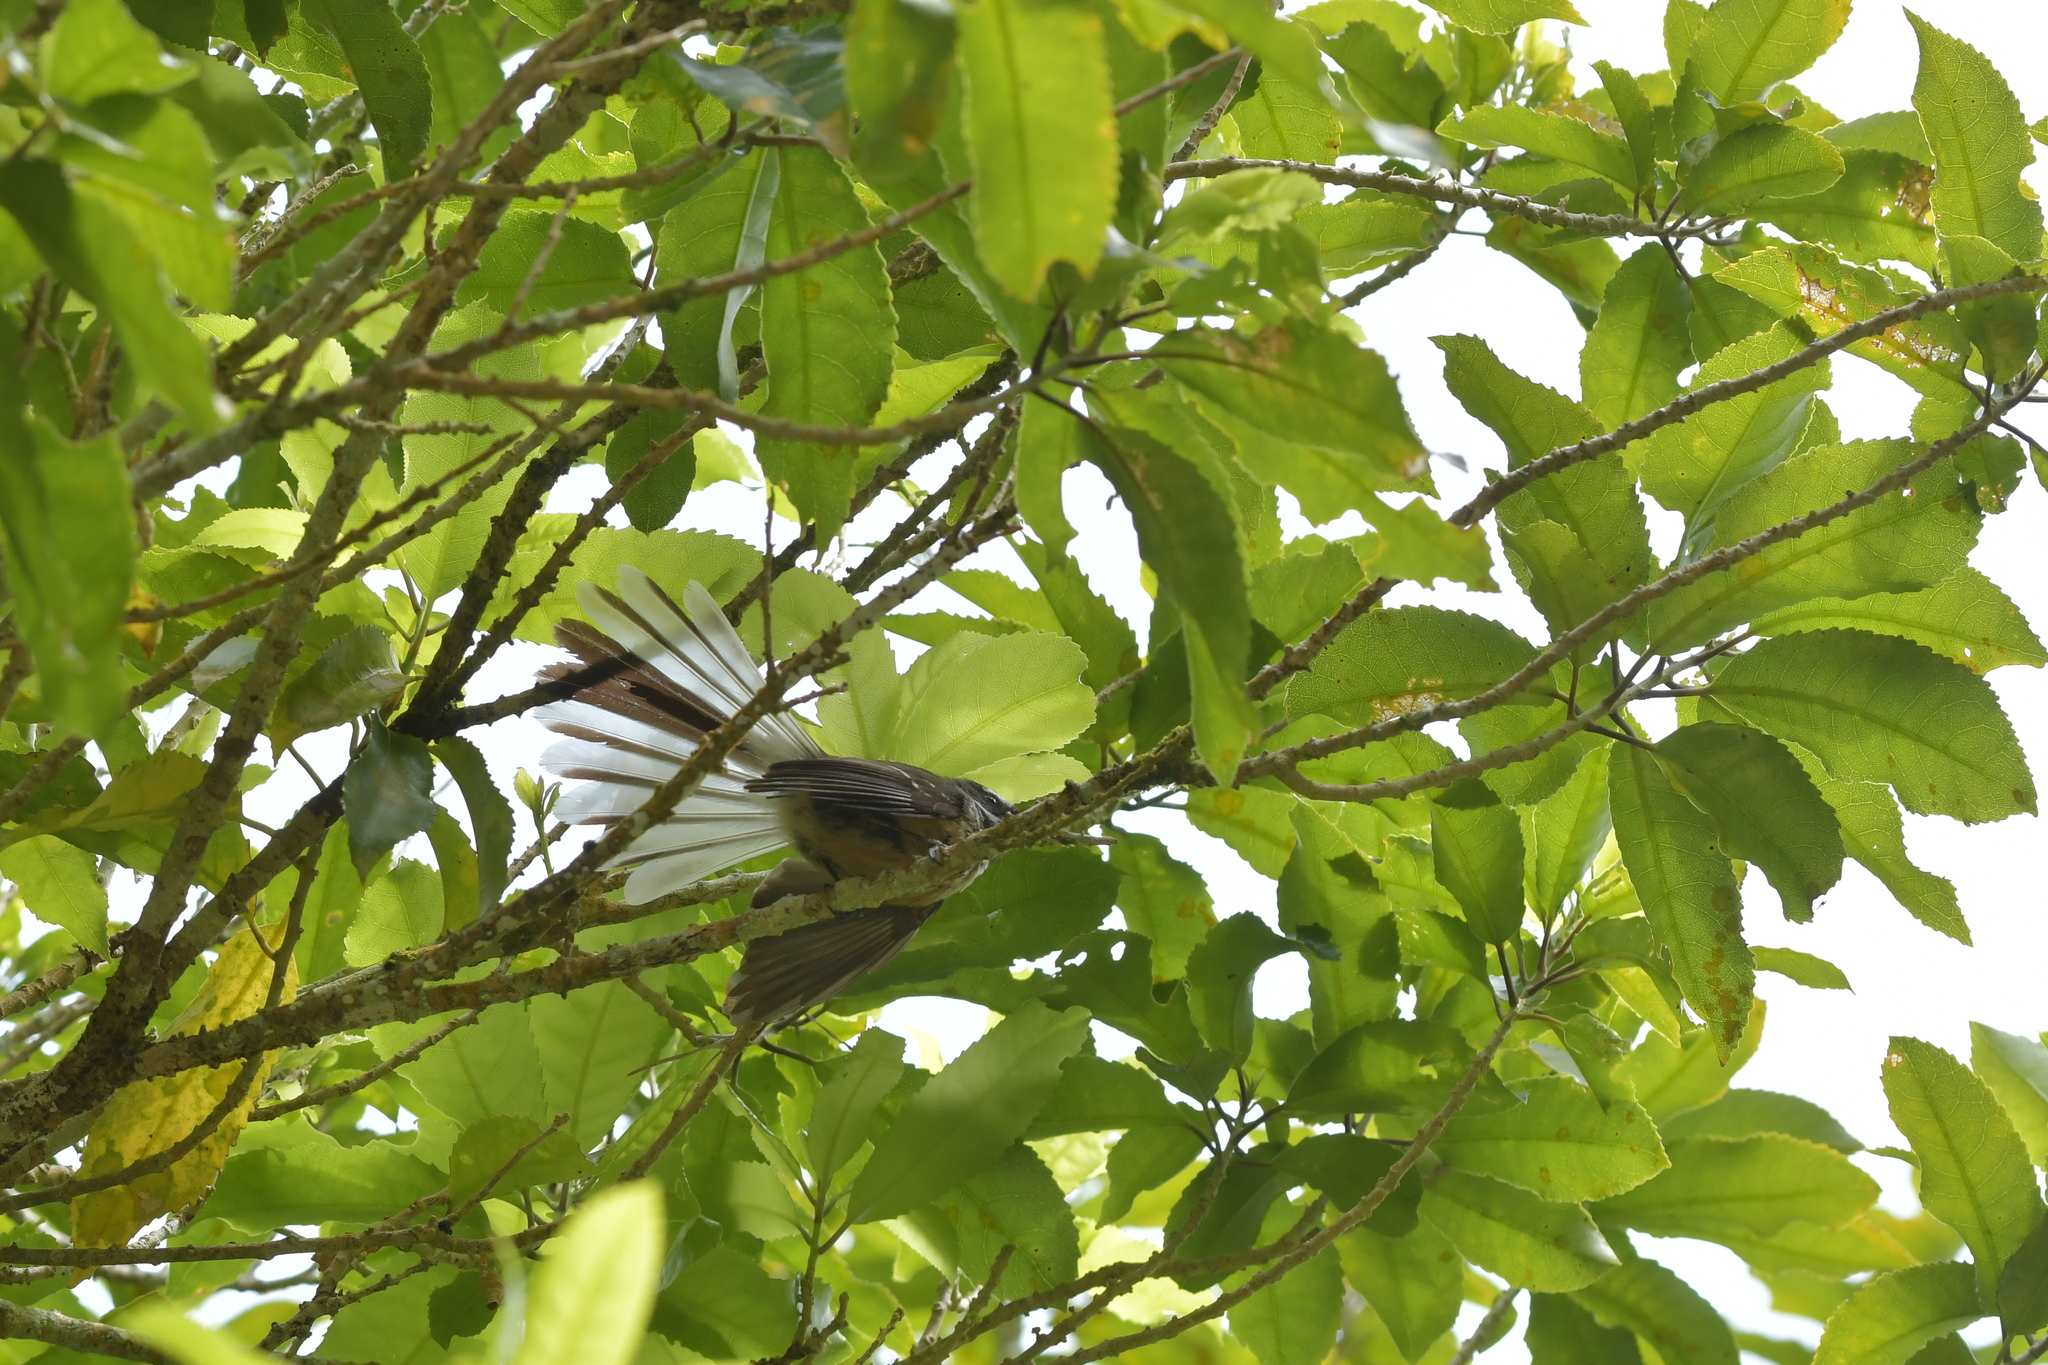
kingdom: Animalia
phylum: Chordata
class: Aves
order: Passeriformes
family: Rhipiduridae
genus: Rhipidura
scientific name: Rhipidura fuliginosa
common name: New zealand fantail
